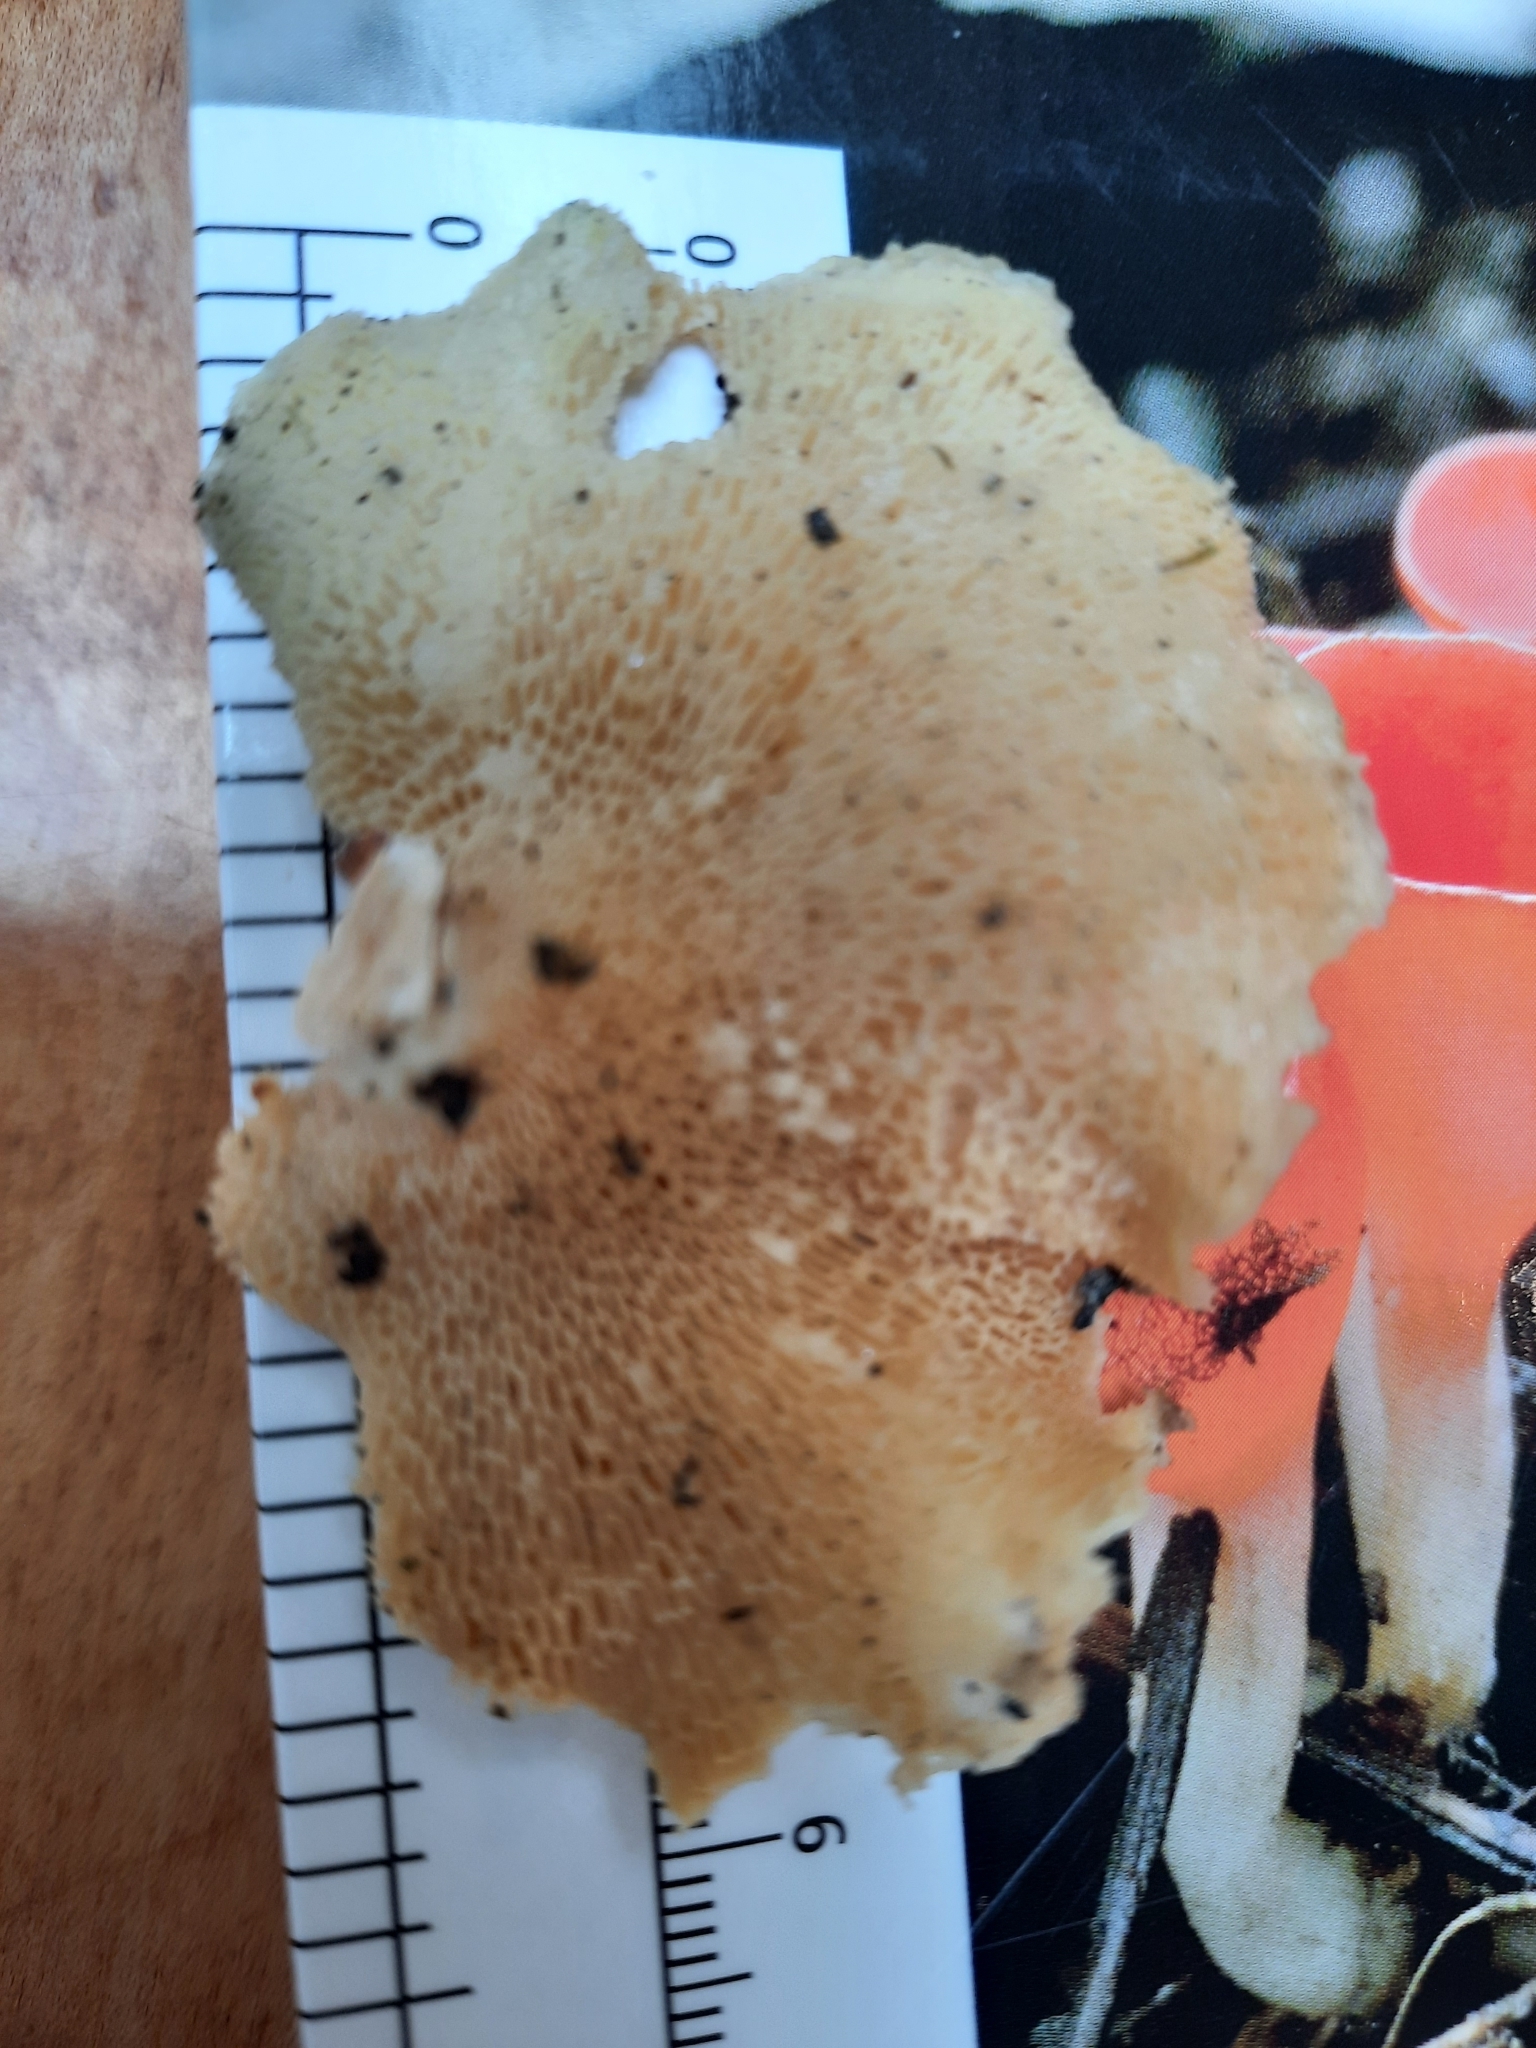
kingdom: Fungi
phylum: Basidiomycota
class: Agaricomycetes
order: Polyporales
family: Polyporaceae
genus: Neofavolus
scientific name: Neofavolus
